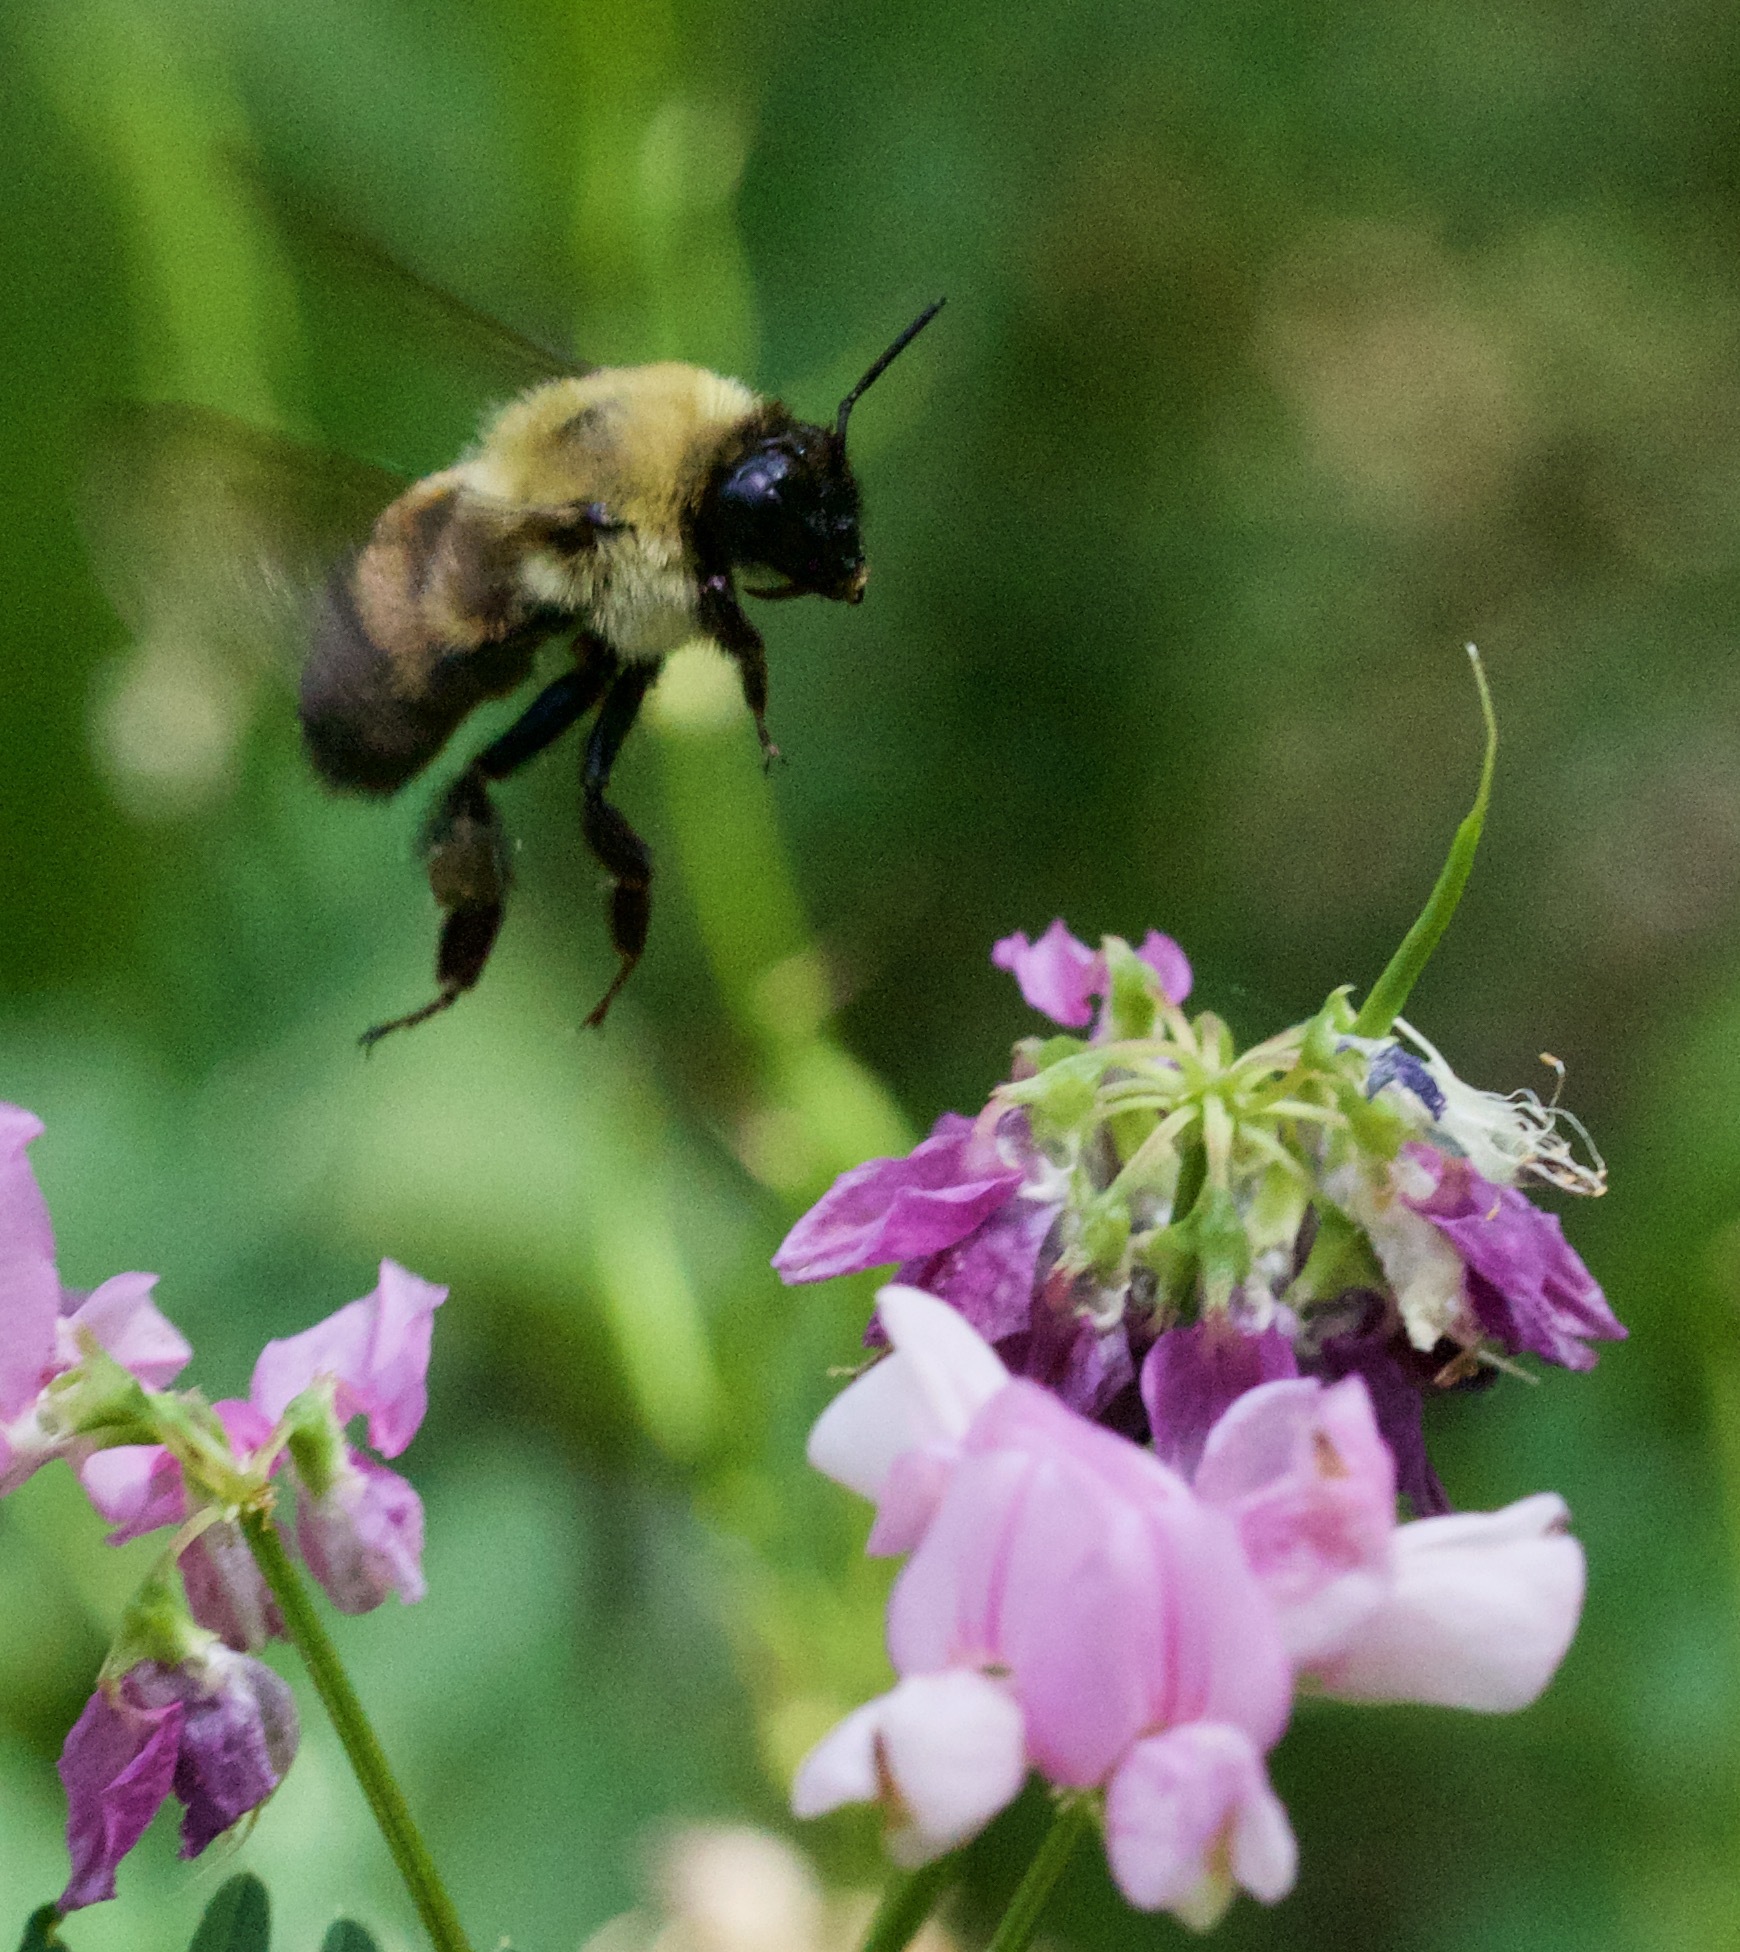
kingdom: Animalia
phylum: Arthropoda
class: Insecta
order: Hymenoptera
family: Apidae
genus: Bombus
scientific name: Bombus griseocollis
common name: Brown-belted bumble bee
